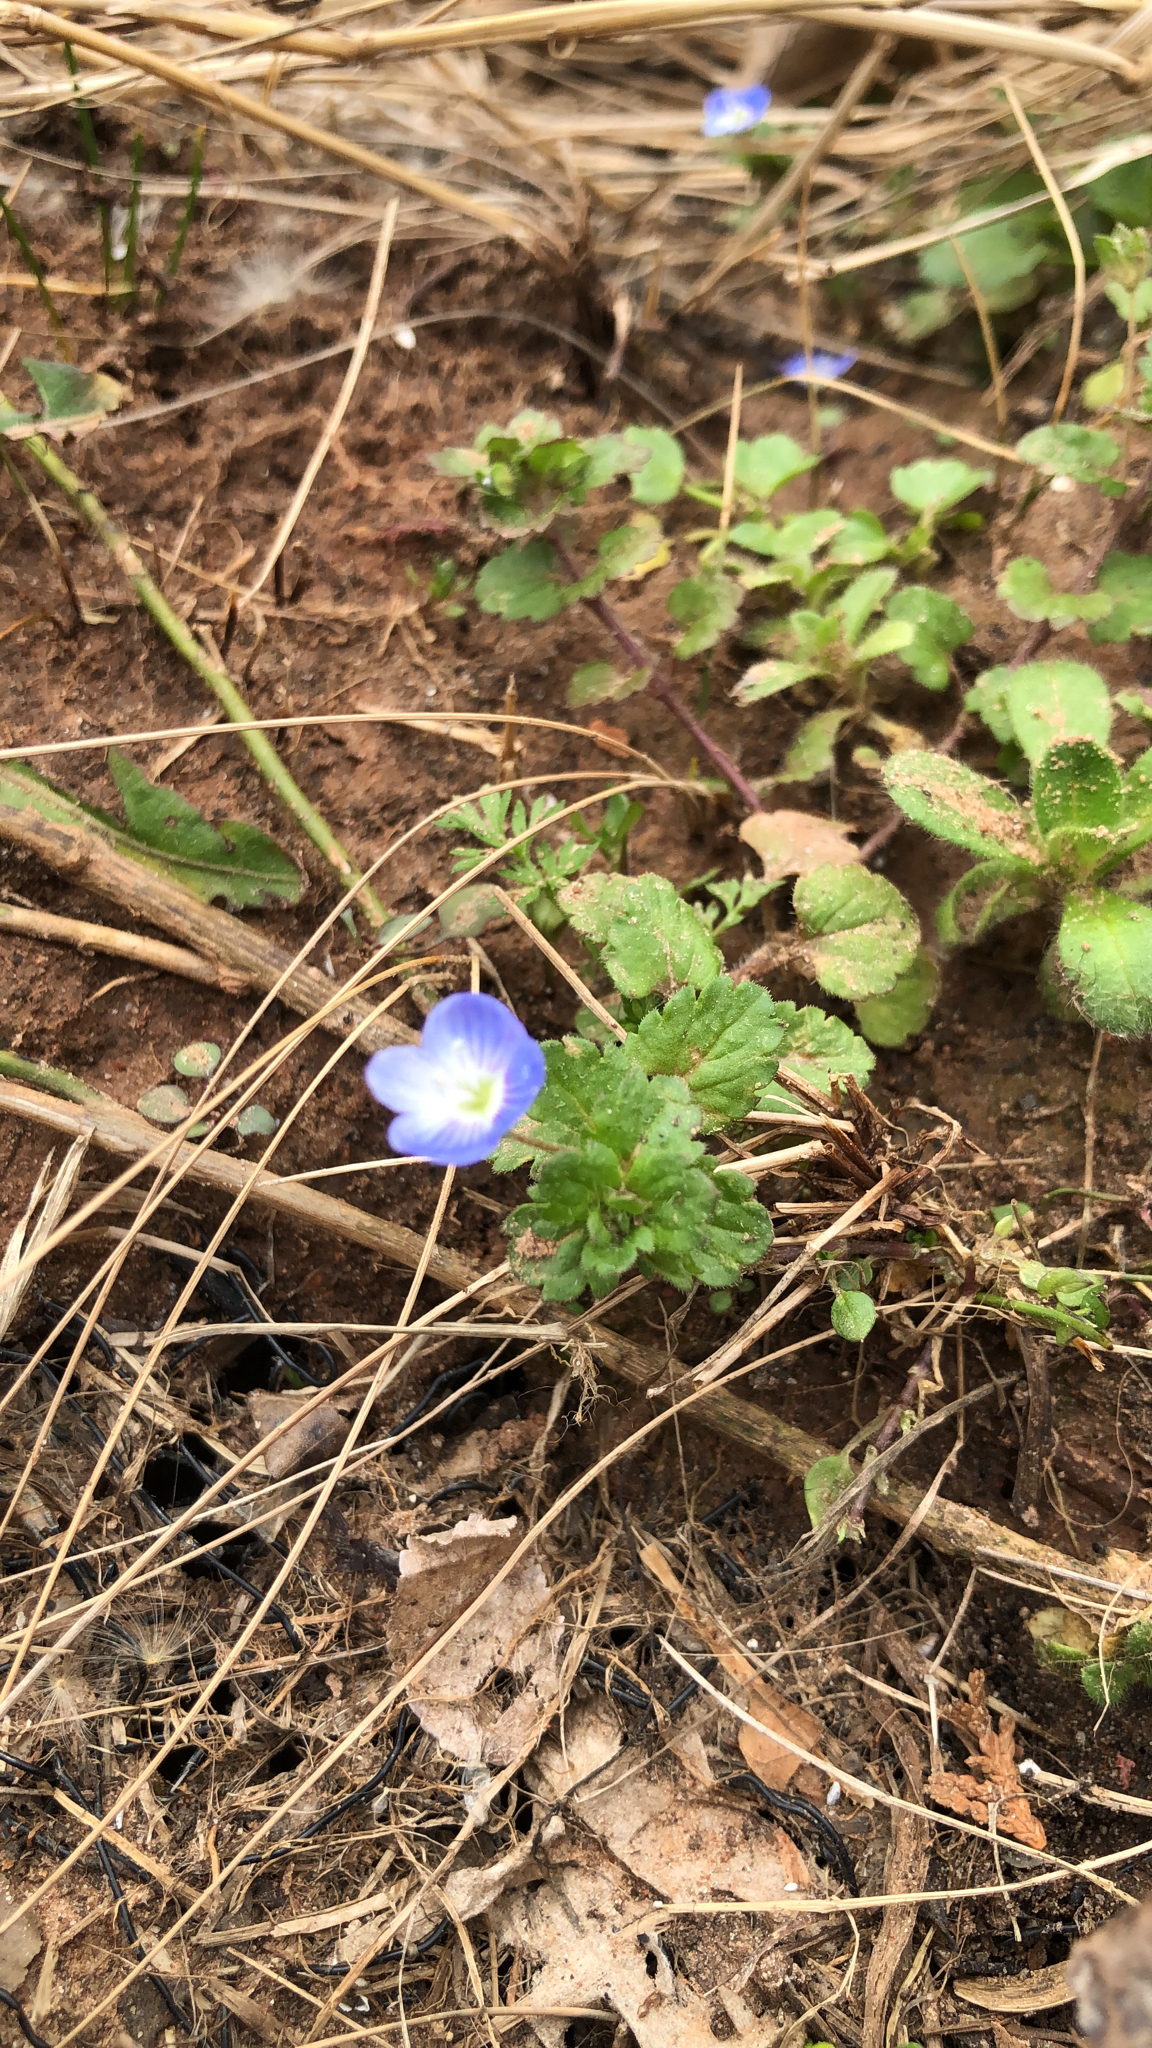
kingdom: Plantae
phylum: Tracheophyta
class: Magnoliopsida
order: Lamiales
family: Plantaginaceae
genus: Veronica
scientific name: Veronica persica
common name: Common field-speedwell
